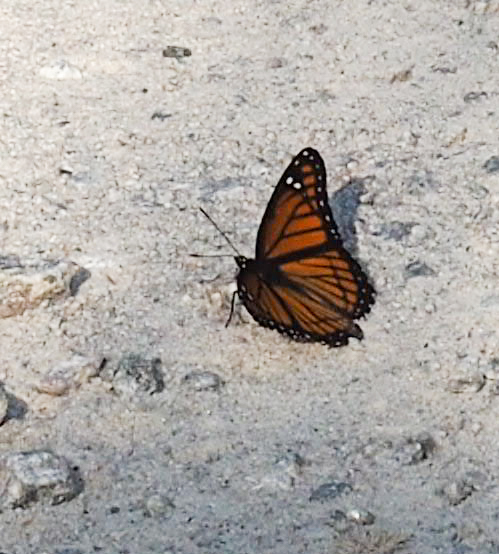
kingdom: Animalia
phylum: Arthropoda
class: Insecta
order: Lepidoptera
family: Nymphalidae
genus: Limenitis
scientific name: Limenitis archippus
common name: Viceroy
